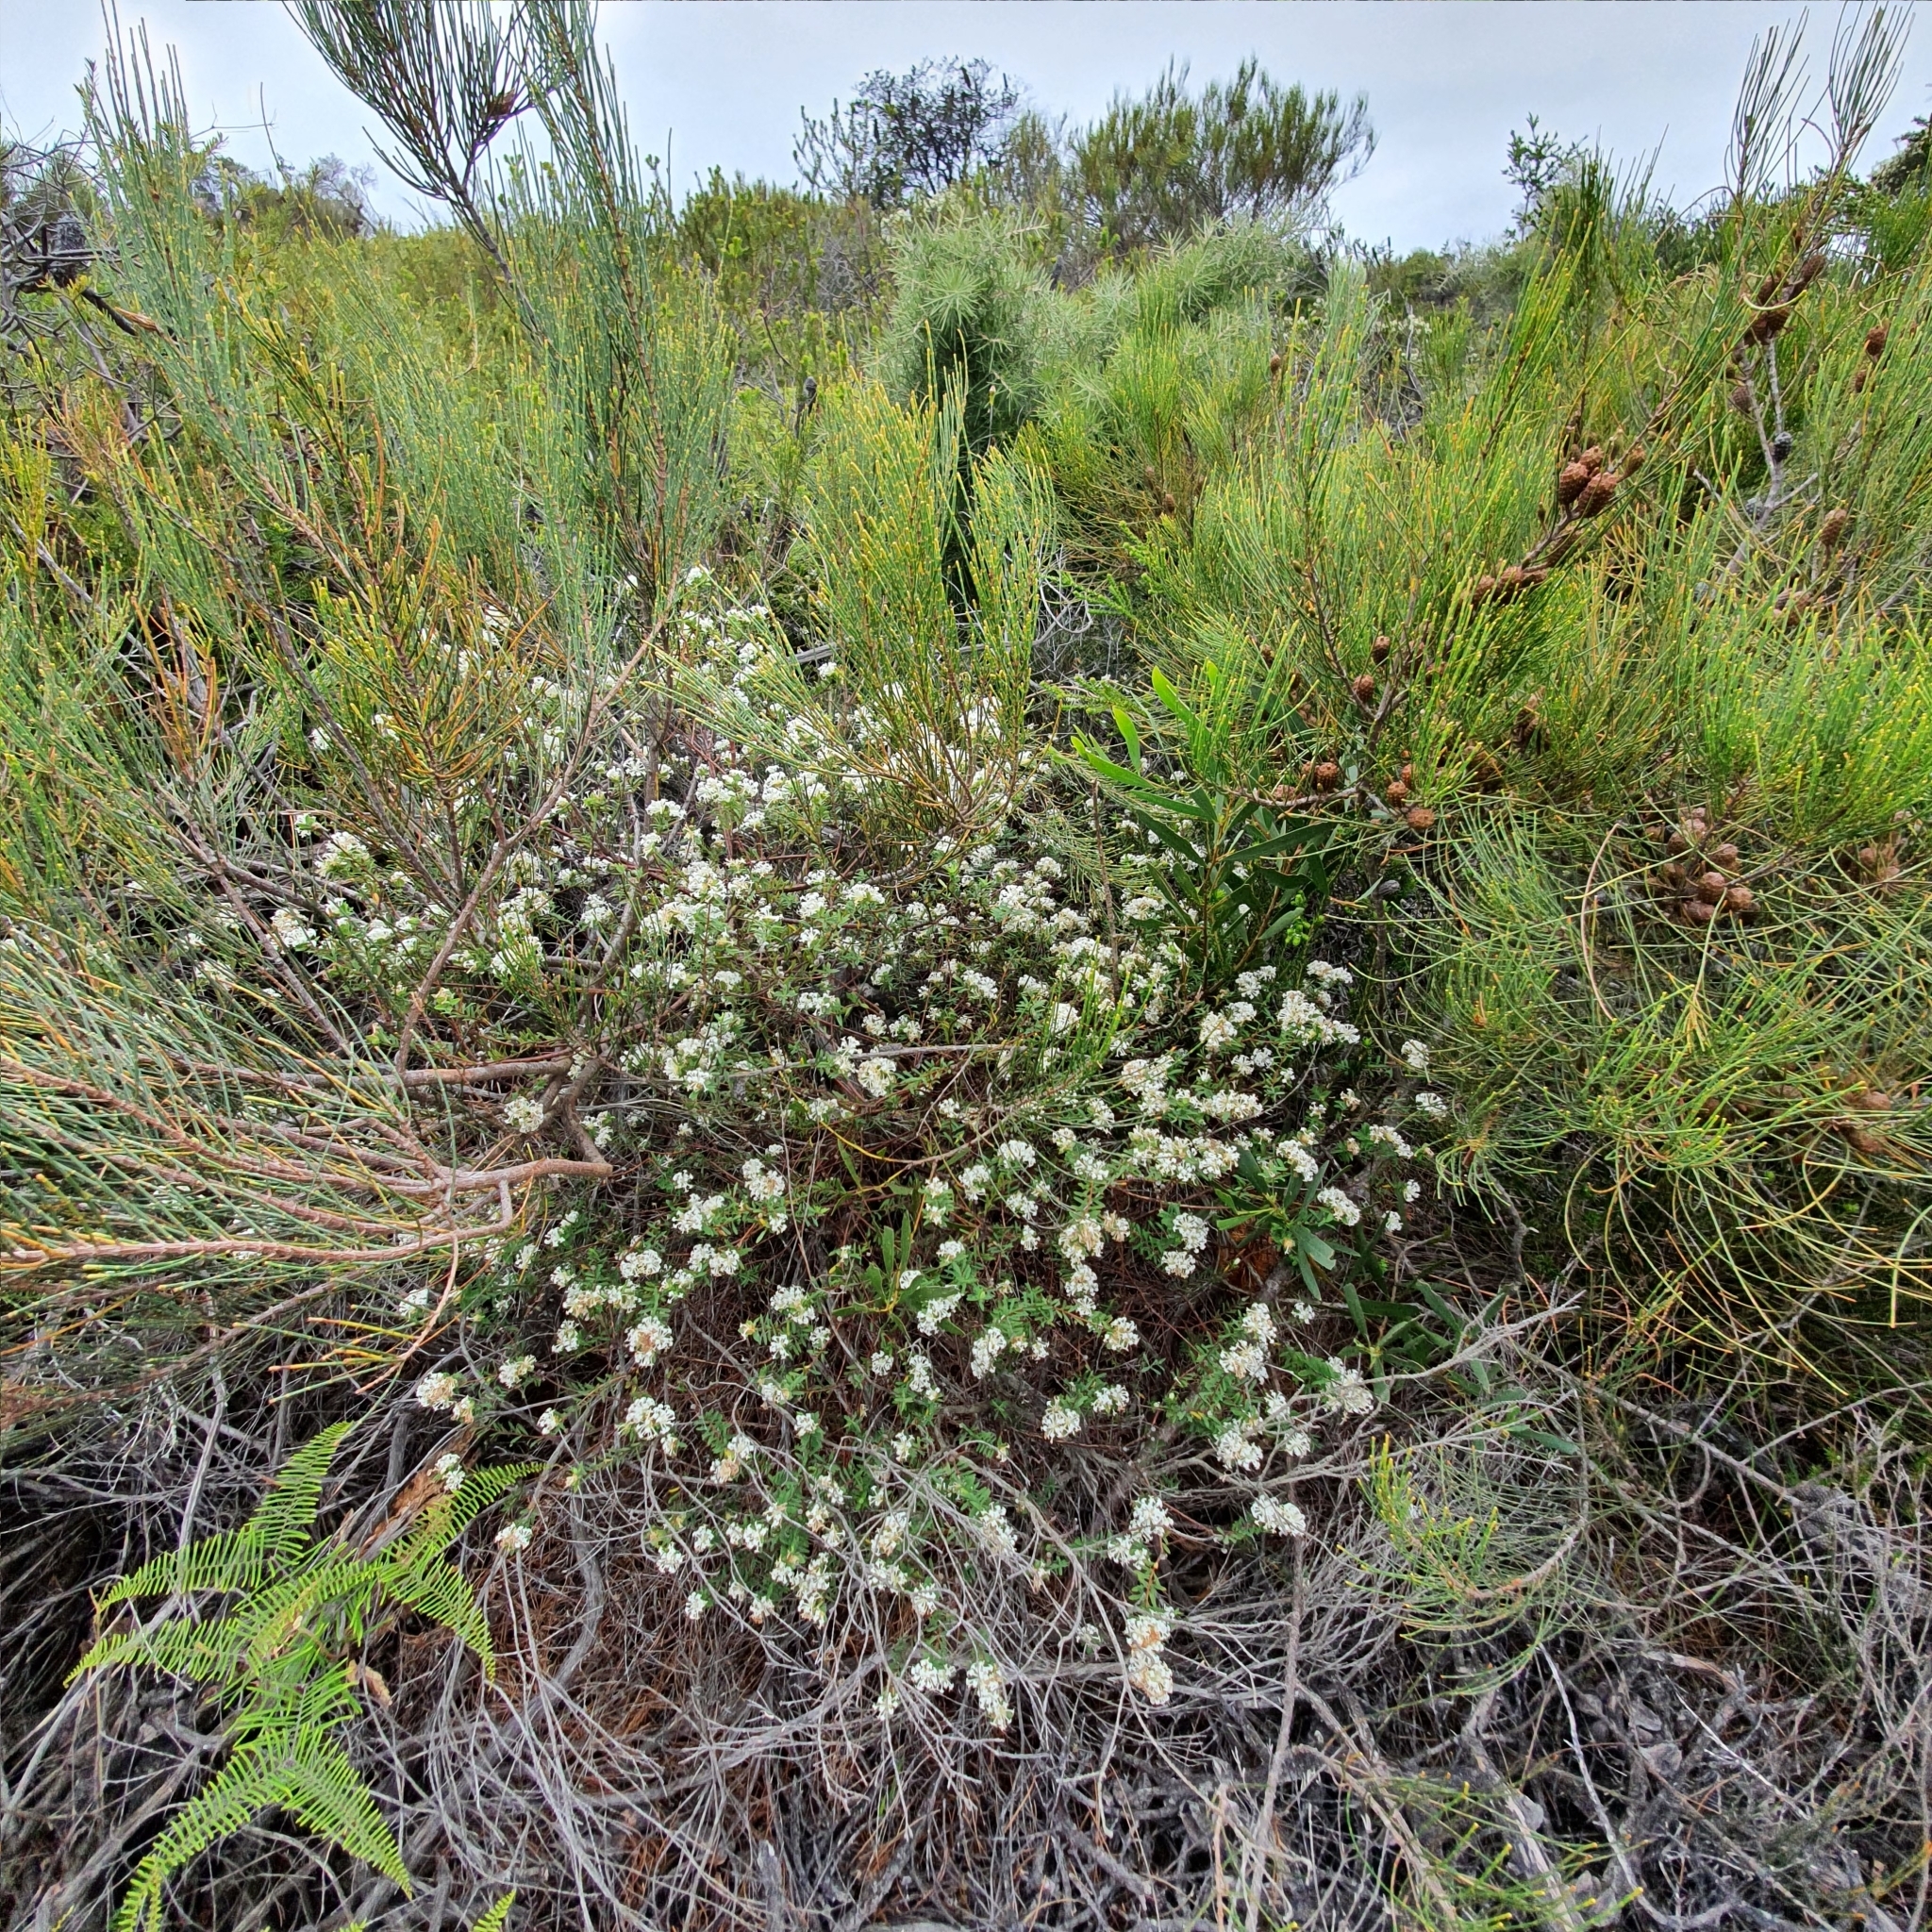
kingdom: Plantae
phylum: Tracheophyta
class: Magnoliopsida
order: Malvales
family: Thymelaeaceae
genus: Pimelea
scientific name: Pimelea linifolia
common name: Queen-of-the-bush
